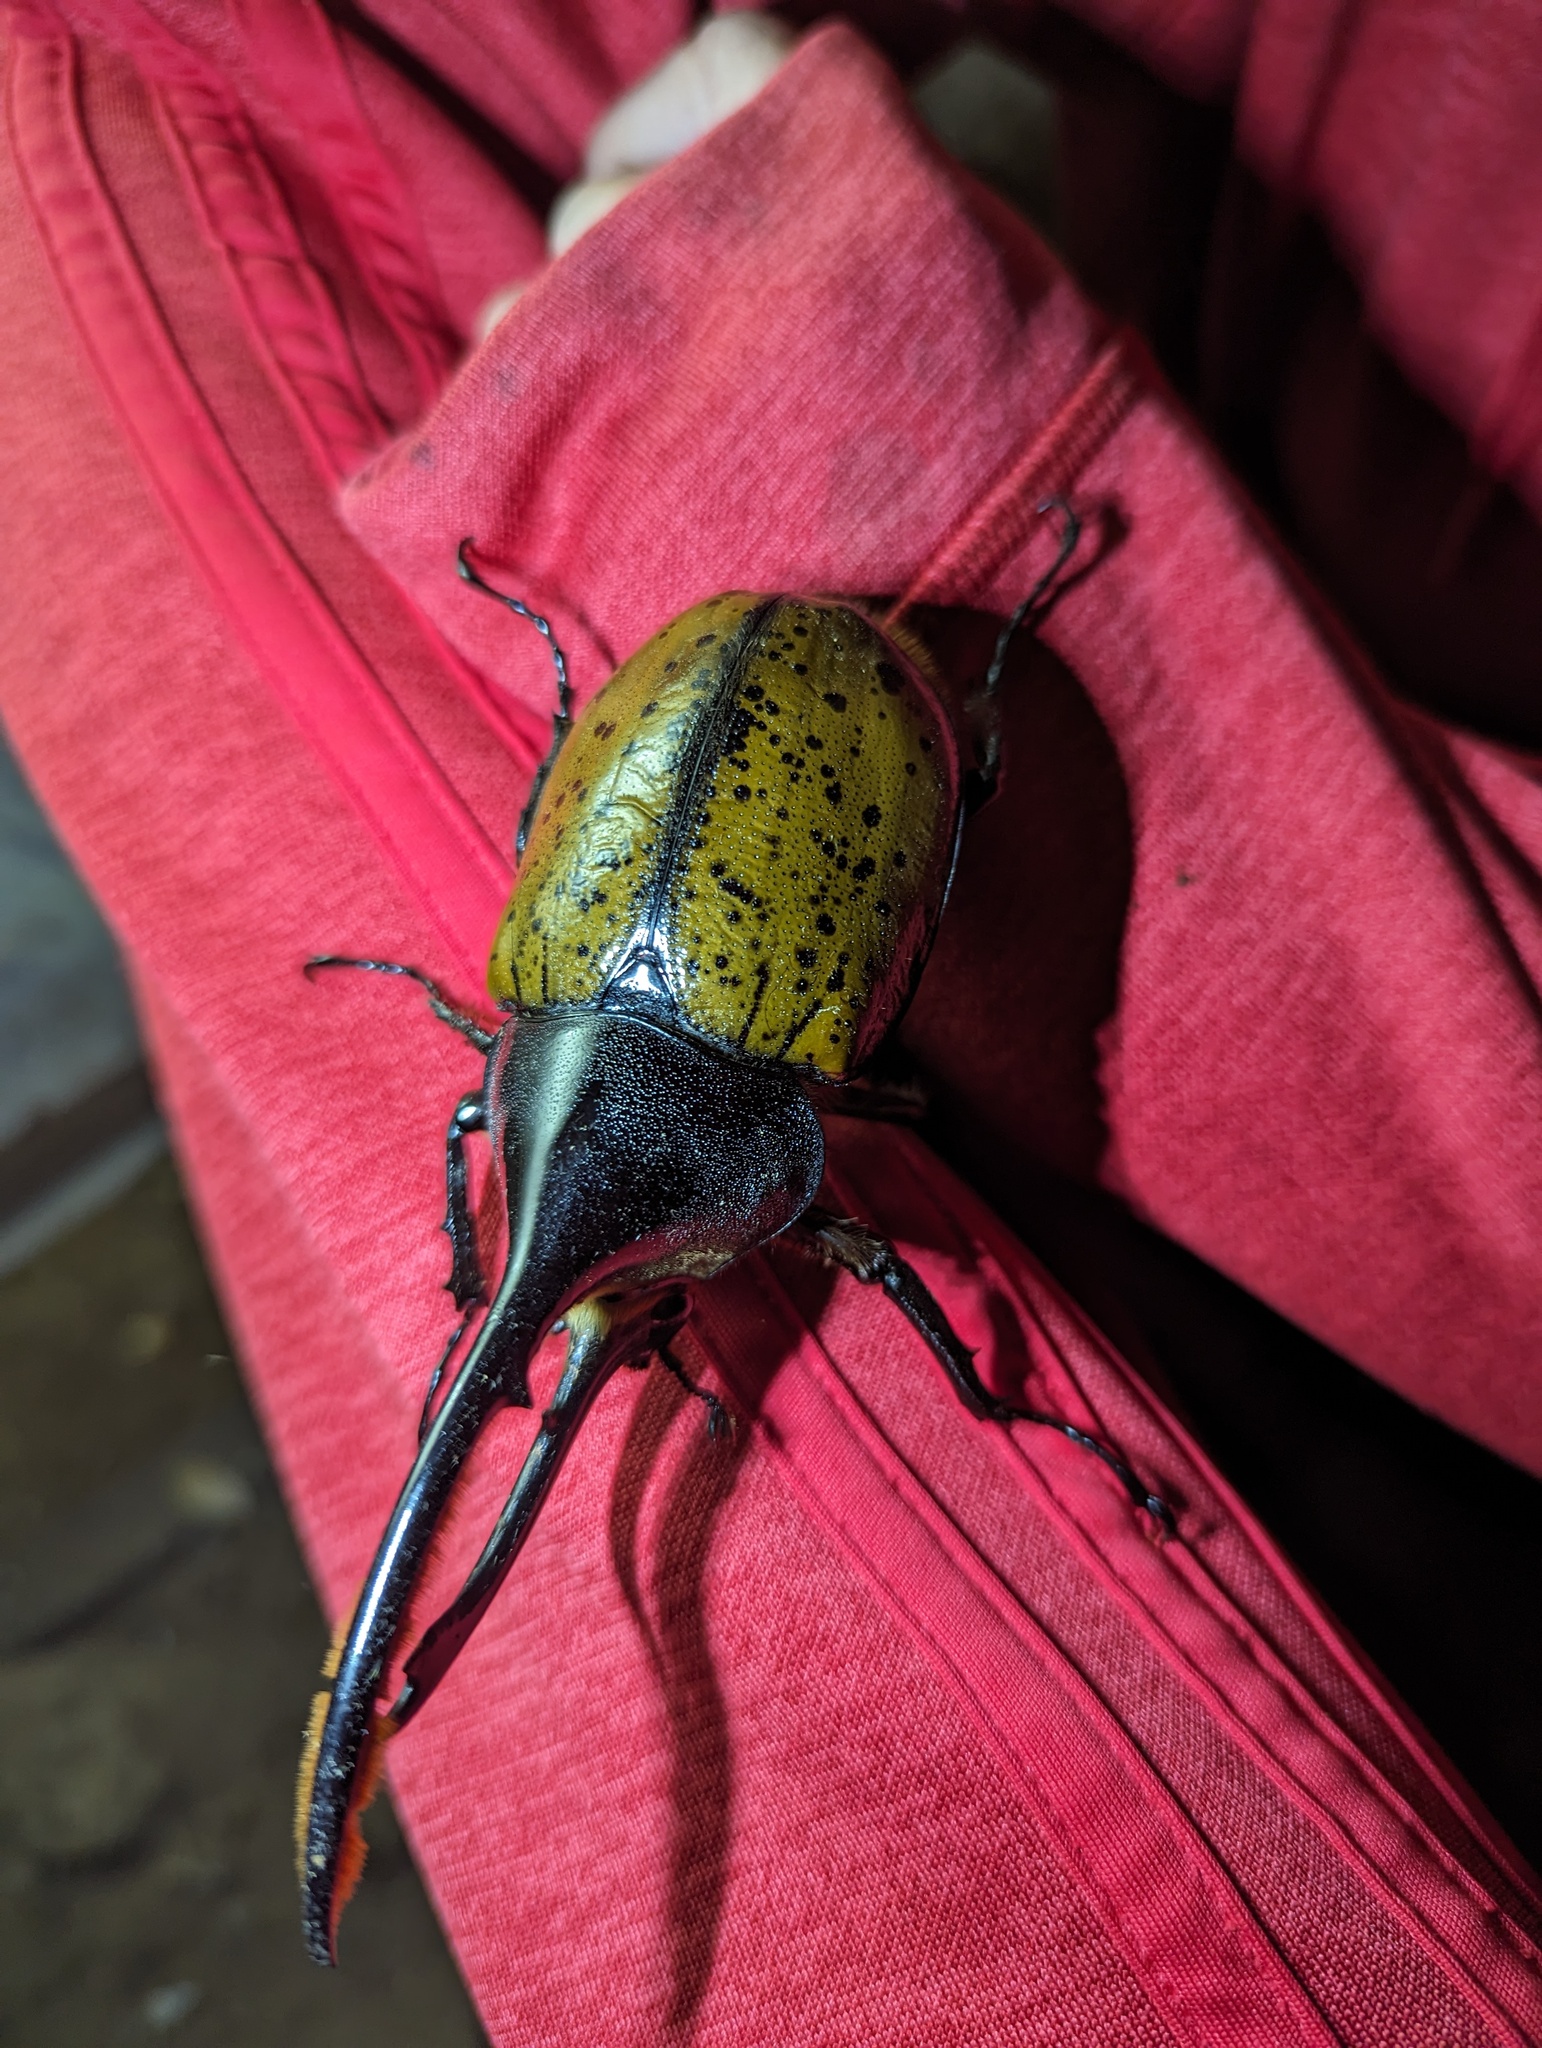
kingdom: Animalia
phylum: Arthropoda
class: Insecta
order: Coleoptera
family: Scarabaeidae
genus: Dynastes
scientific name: Dynastes
